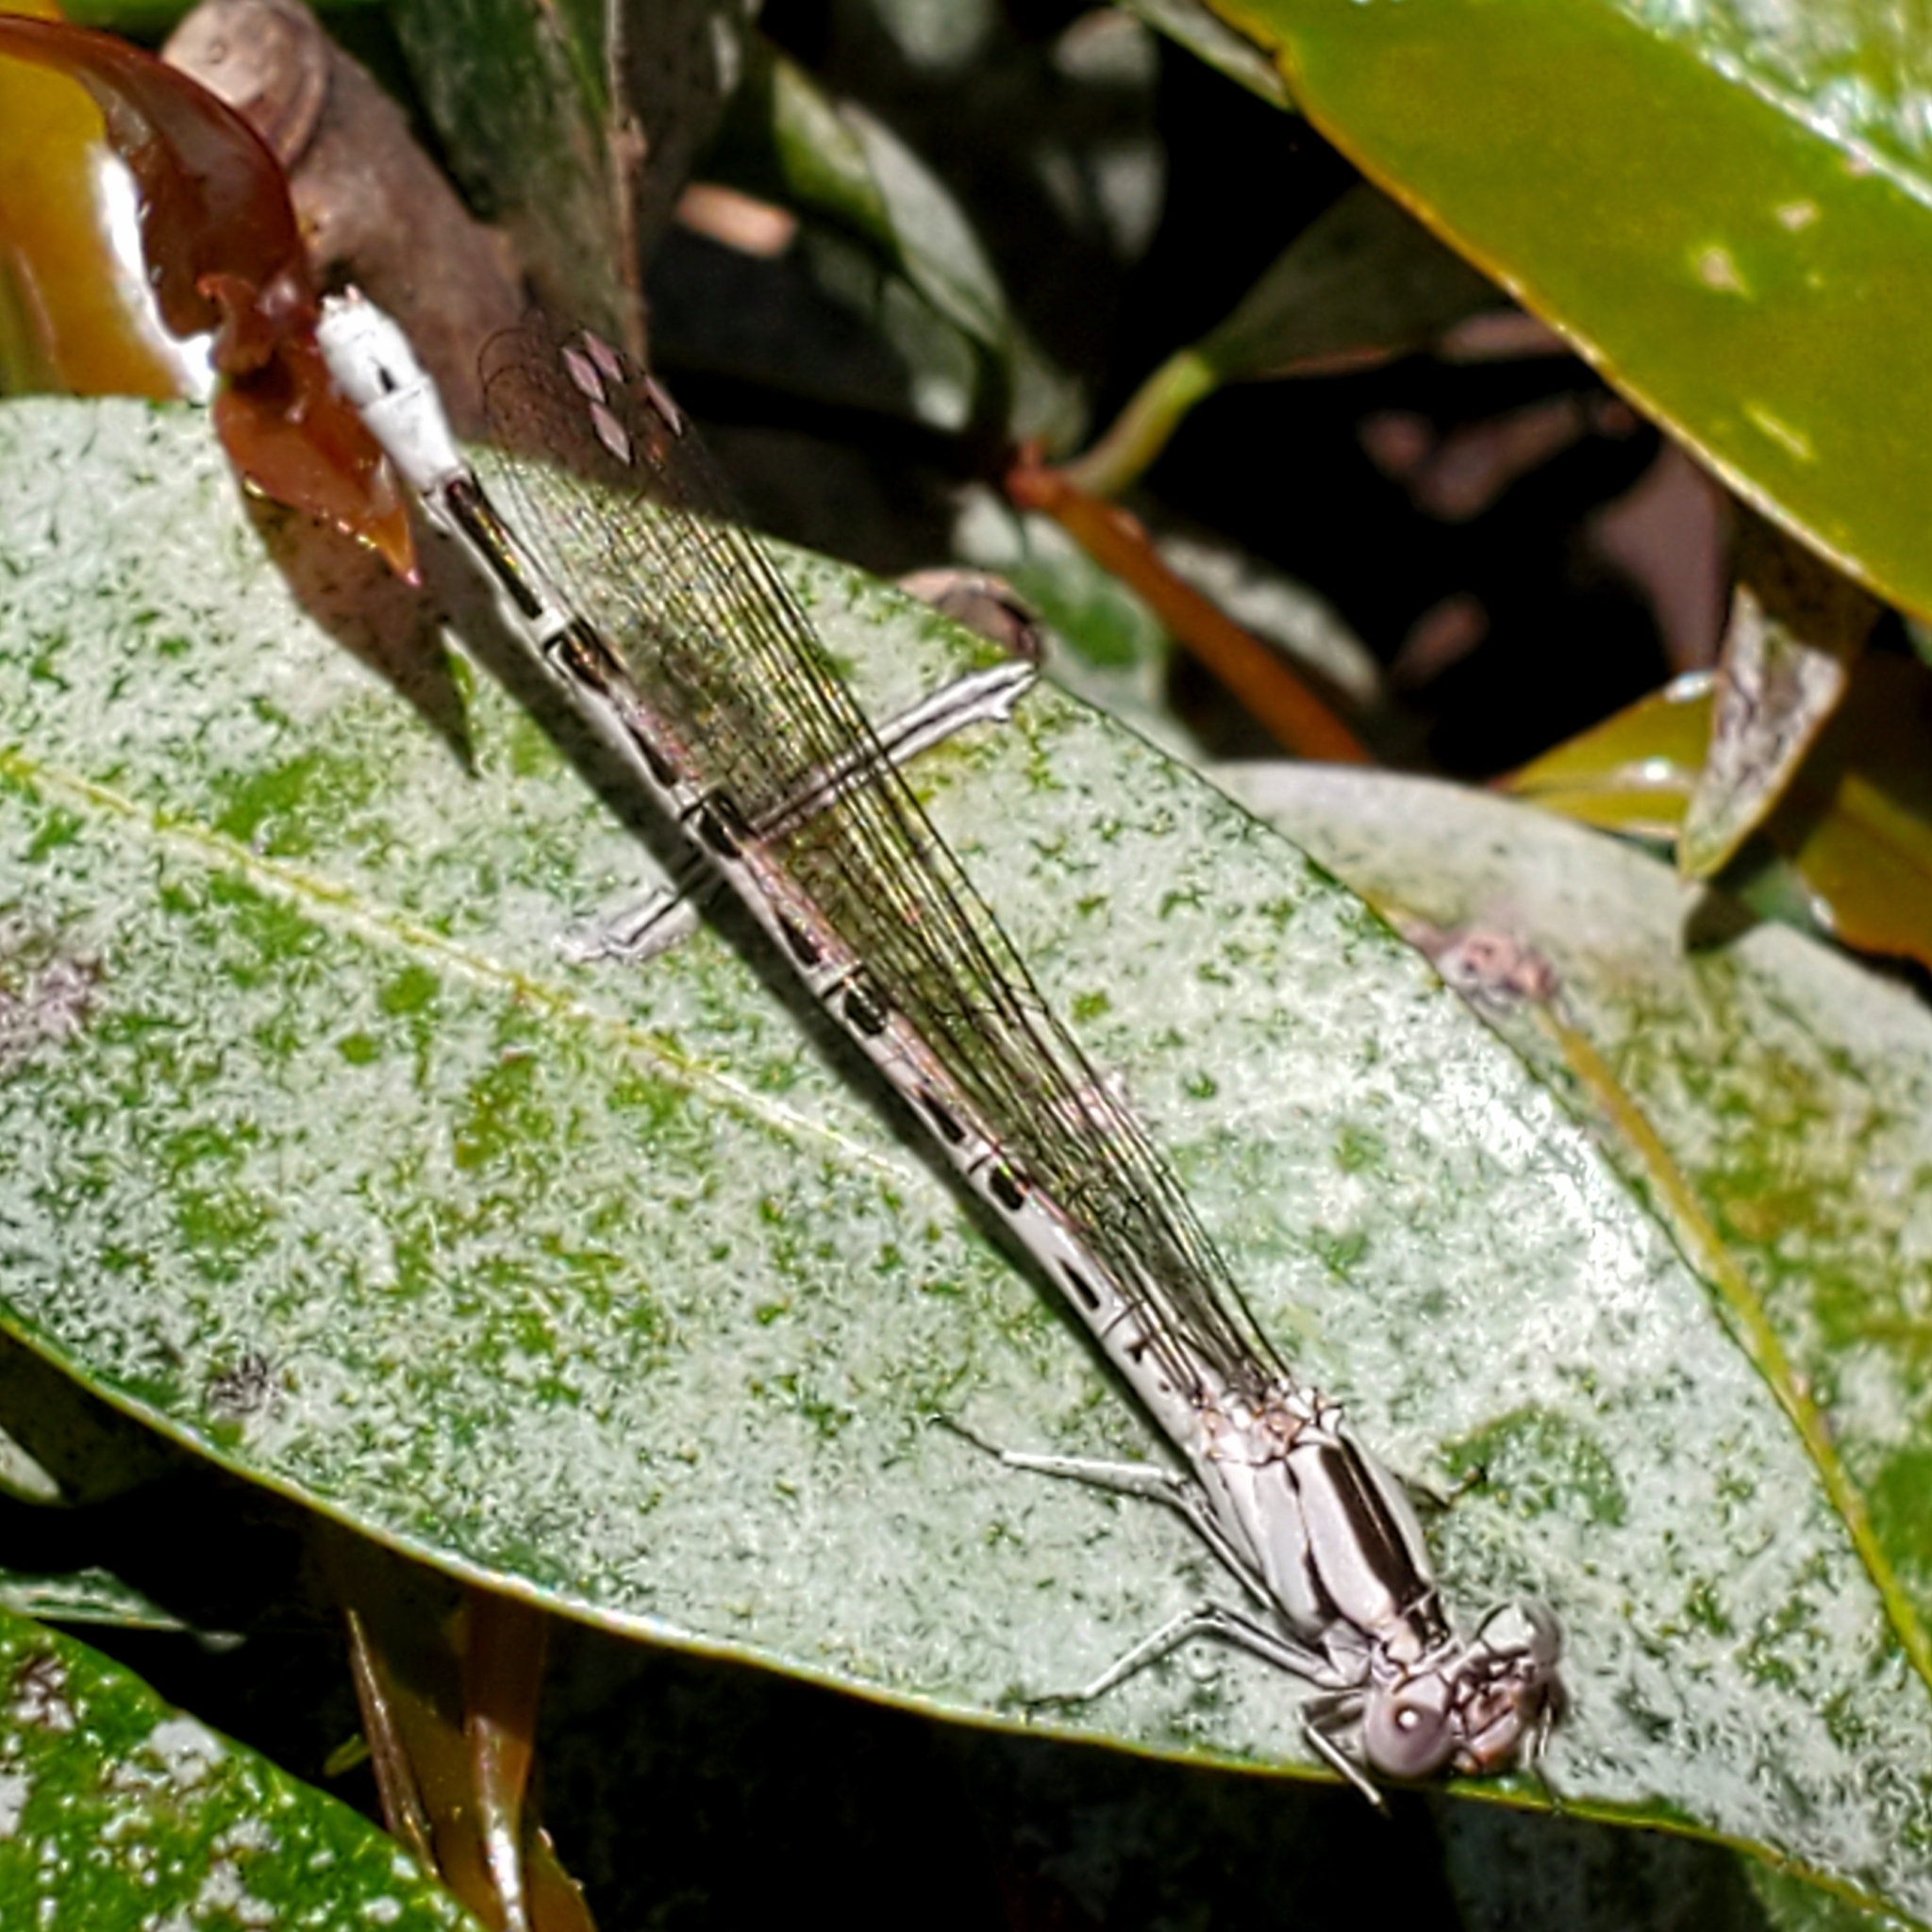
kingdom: Animalia
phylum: Arthropoda
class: Insecta
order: Odonata
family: Coenagrionidae
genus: Argia
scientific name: Argia vivida
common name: Vivid dancer
